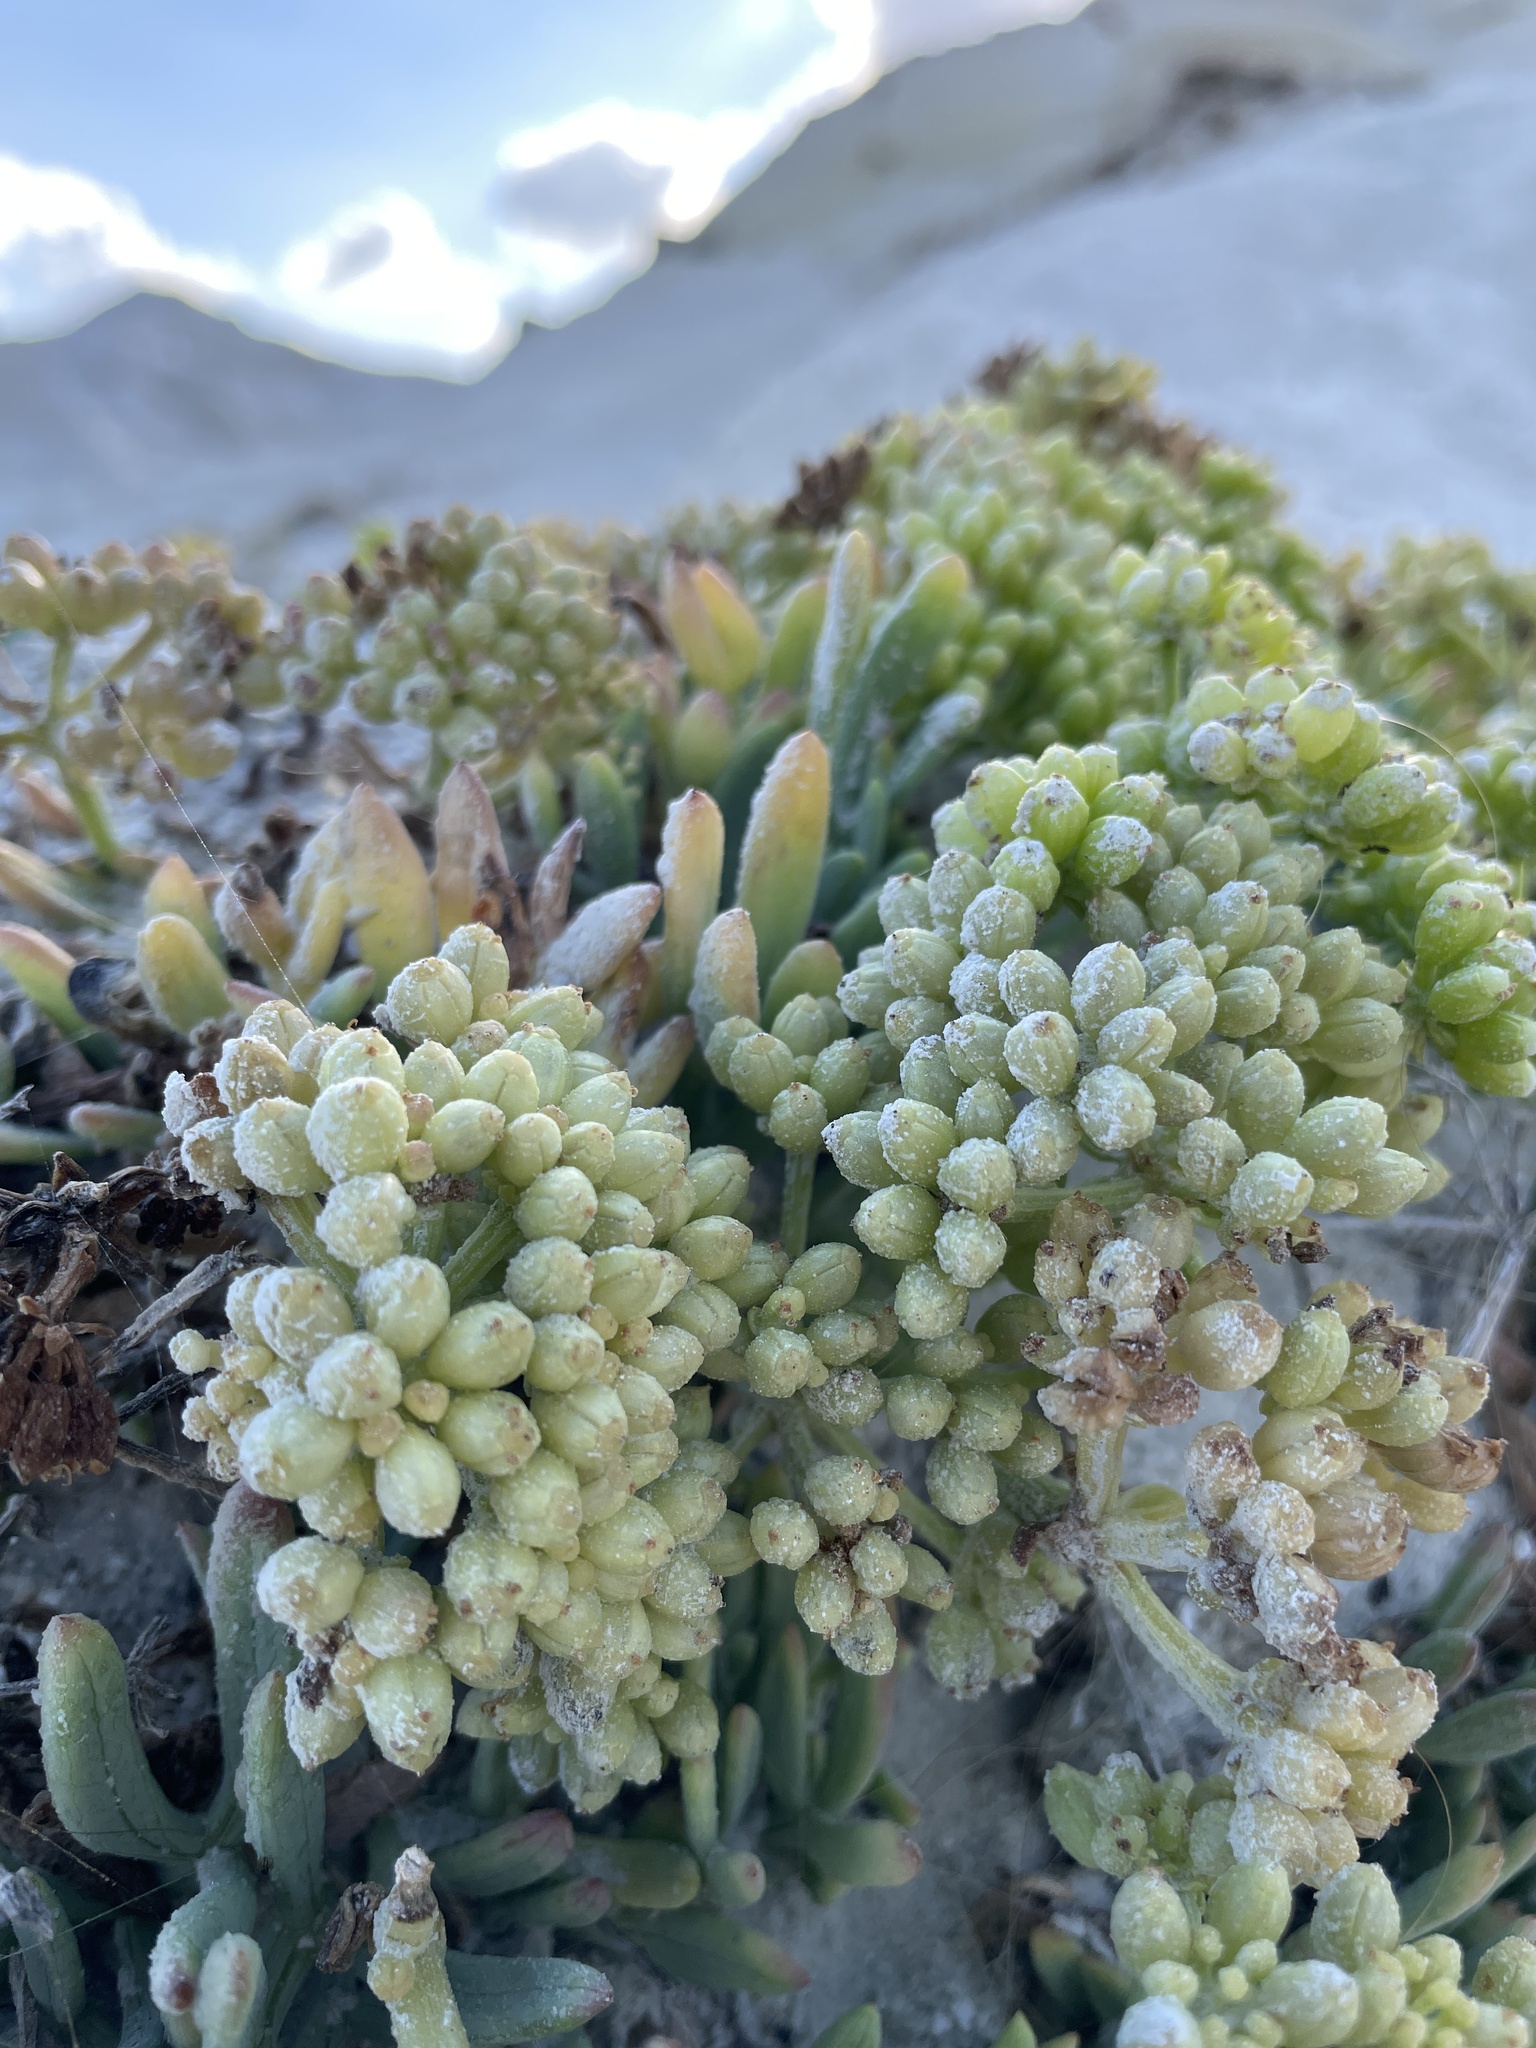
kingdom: Plantae
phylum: Tracheophyta
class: Magnoliopsida
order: Apiales
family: Apiaceae
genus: Crithmum
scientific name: Crithmum maritimum
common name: Rock samphire
